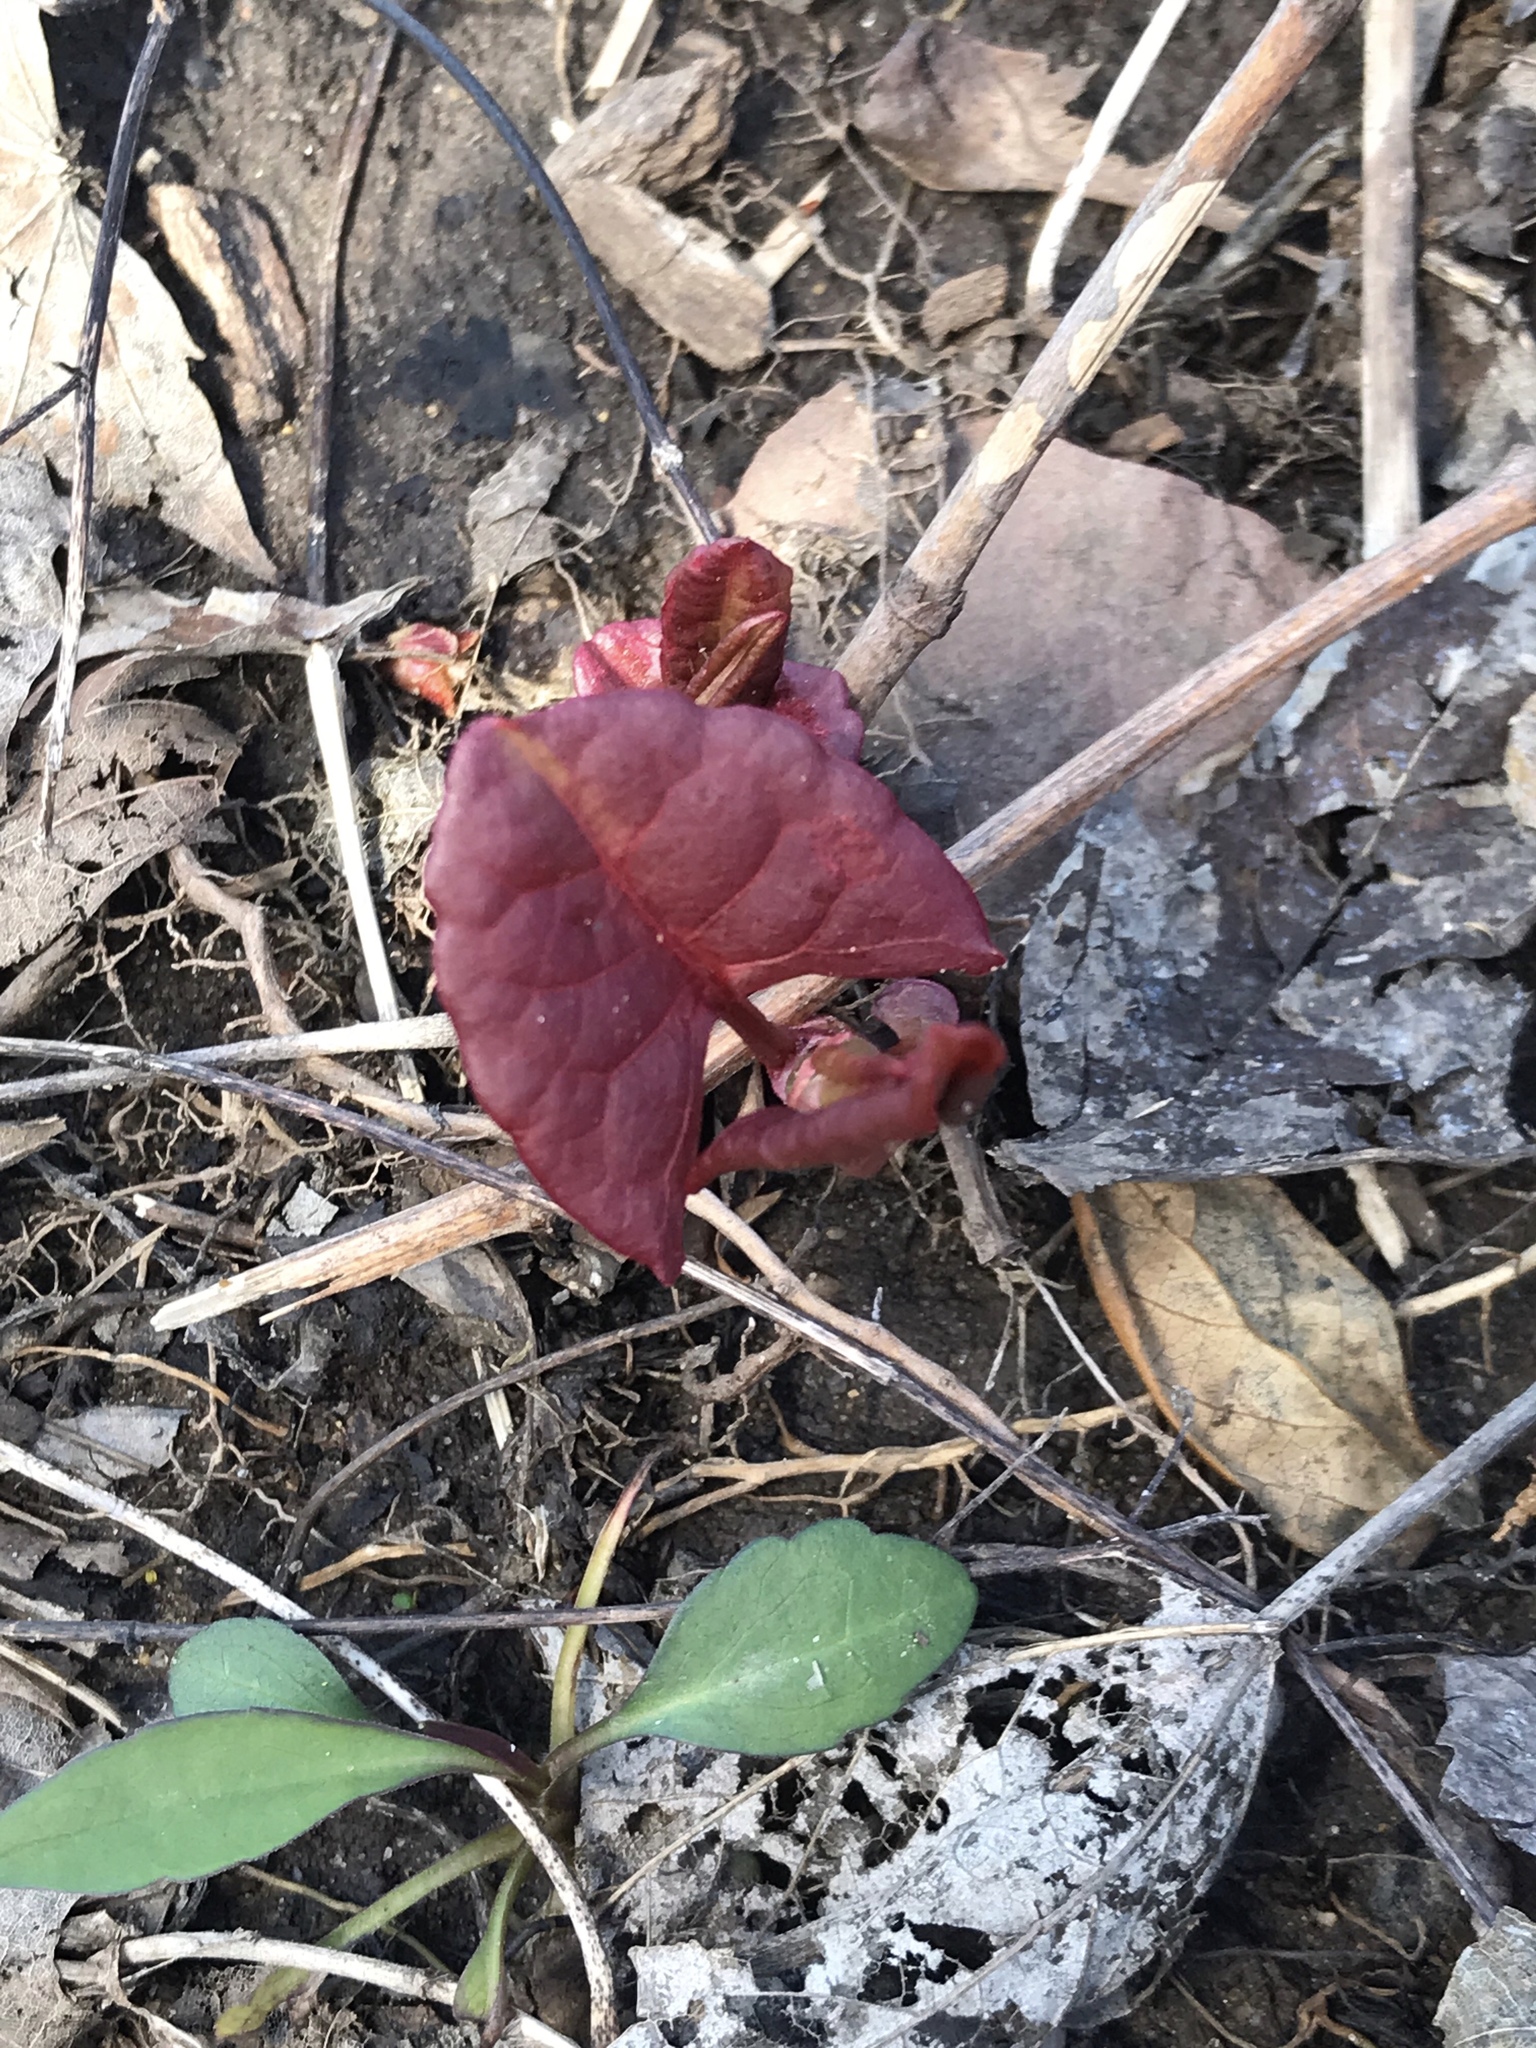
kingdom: Plantae
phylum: Tracheophyta
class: Magnoliopsida
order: Caryophyllales
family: Polygonaceae
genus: Reynoutria
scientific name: Reynoutria japonica
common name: Japanese knotweed
